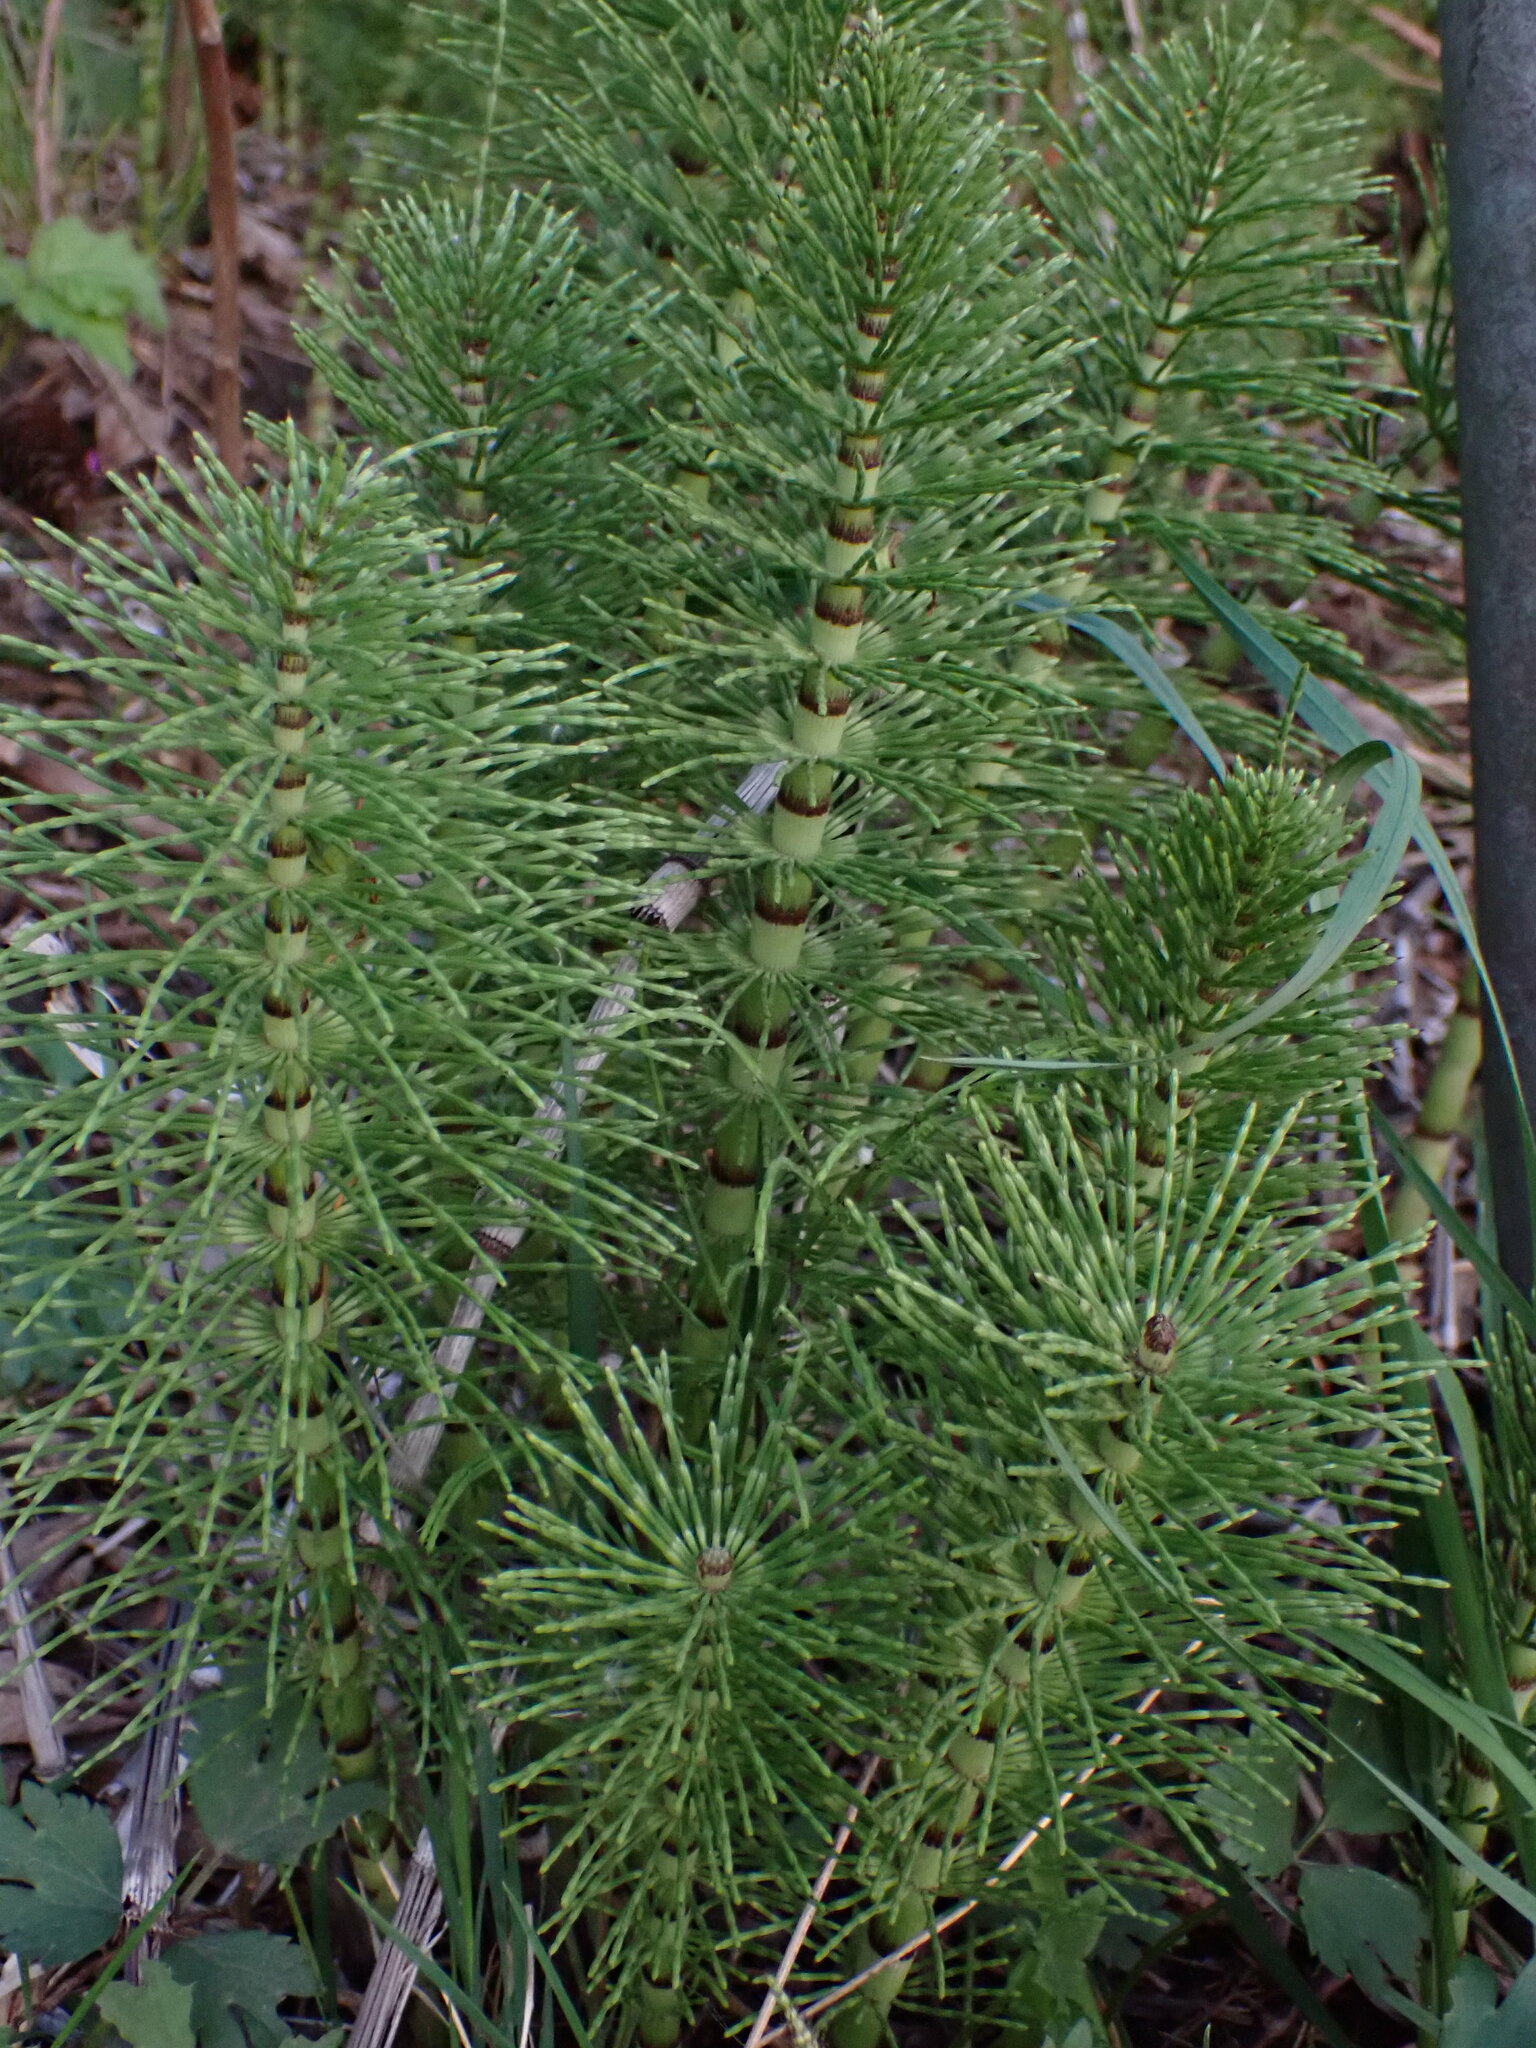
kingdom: Plantae
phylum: Tracheophyta
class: Polypodiopsida
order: Equisetales
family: Equisetaceae
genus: Equisetum
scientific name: Equisetum braunii
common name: Braun's horsetail
